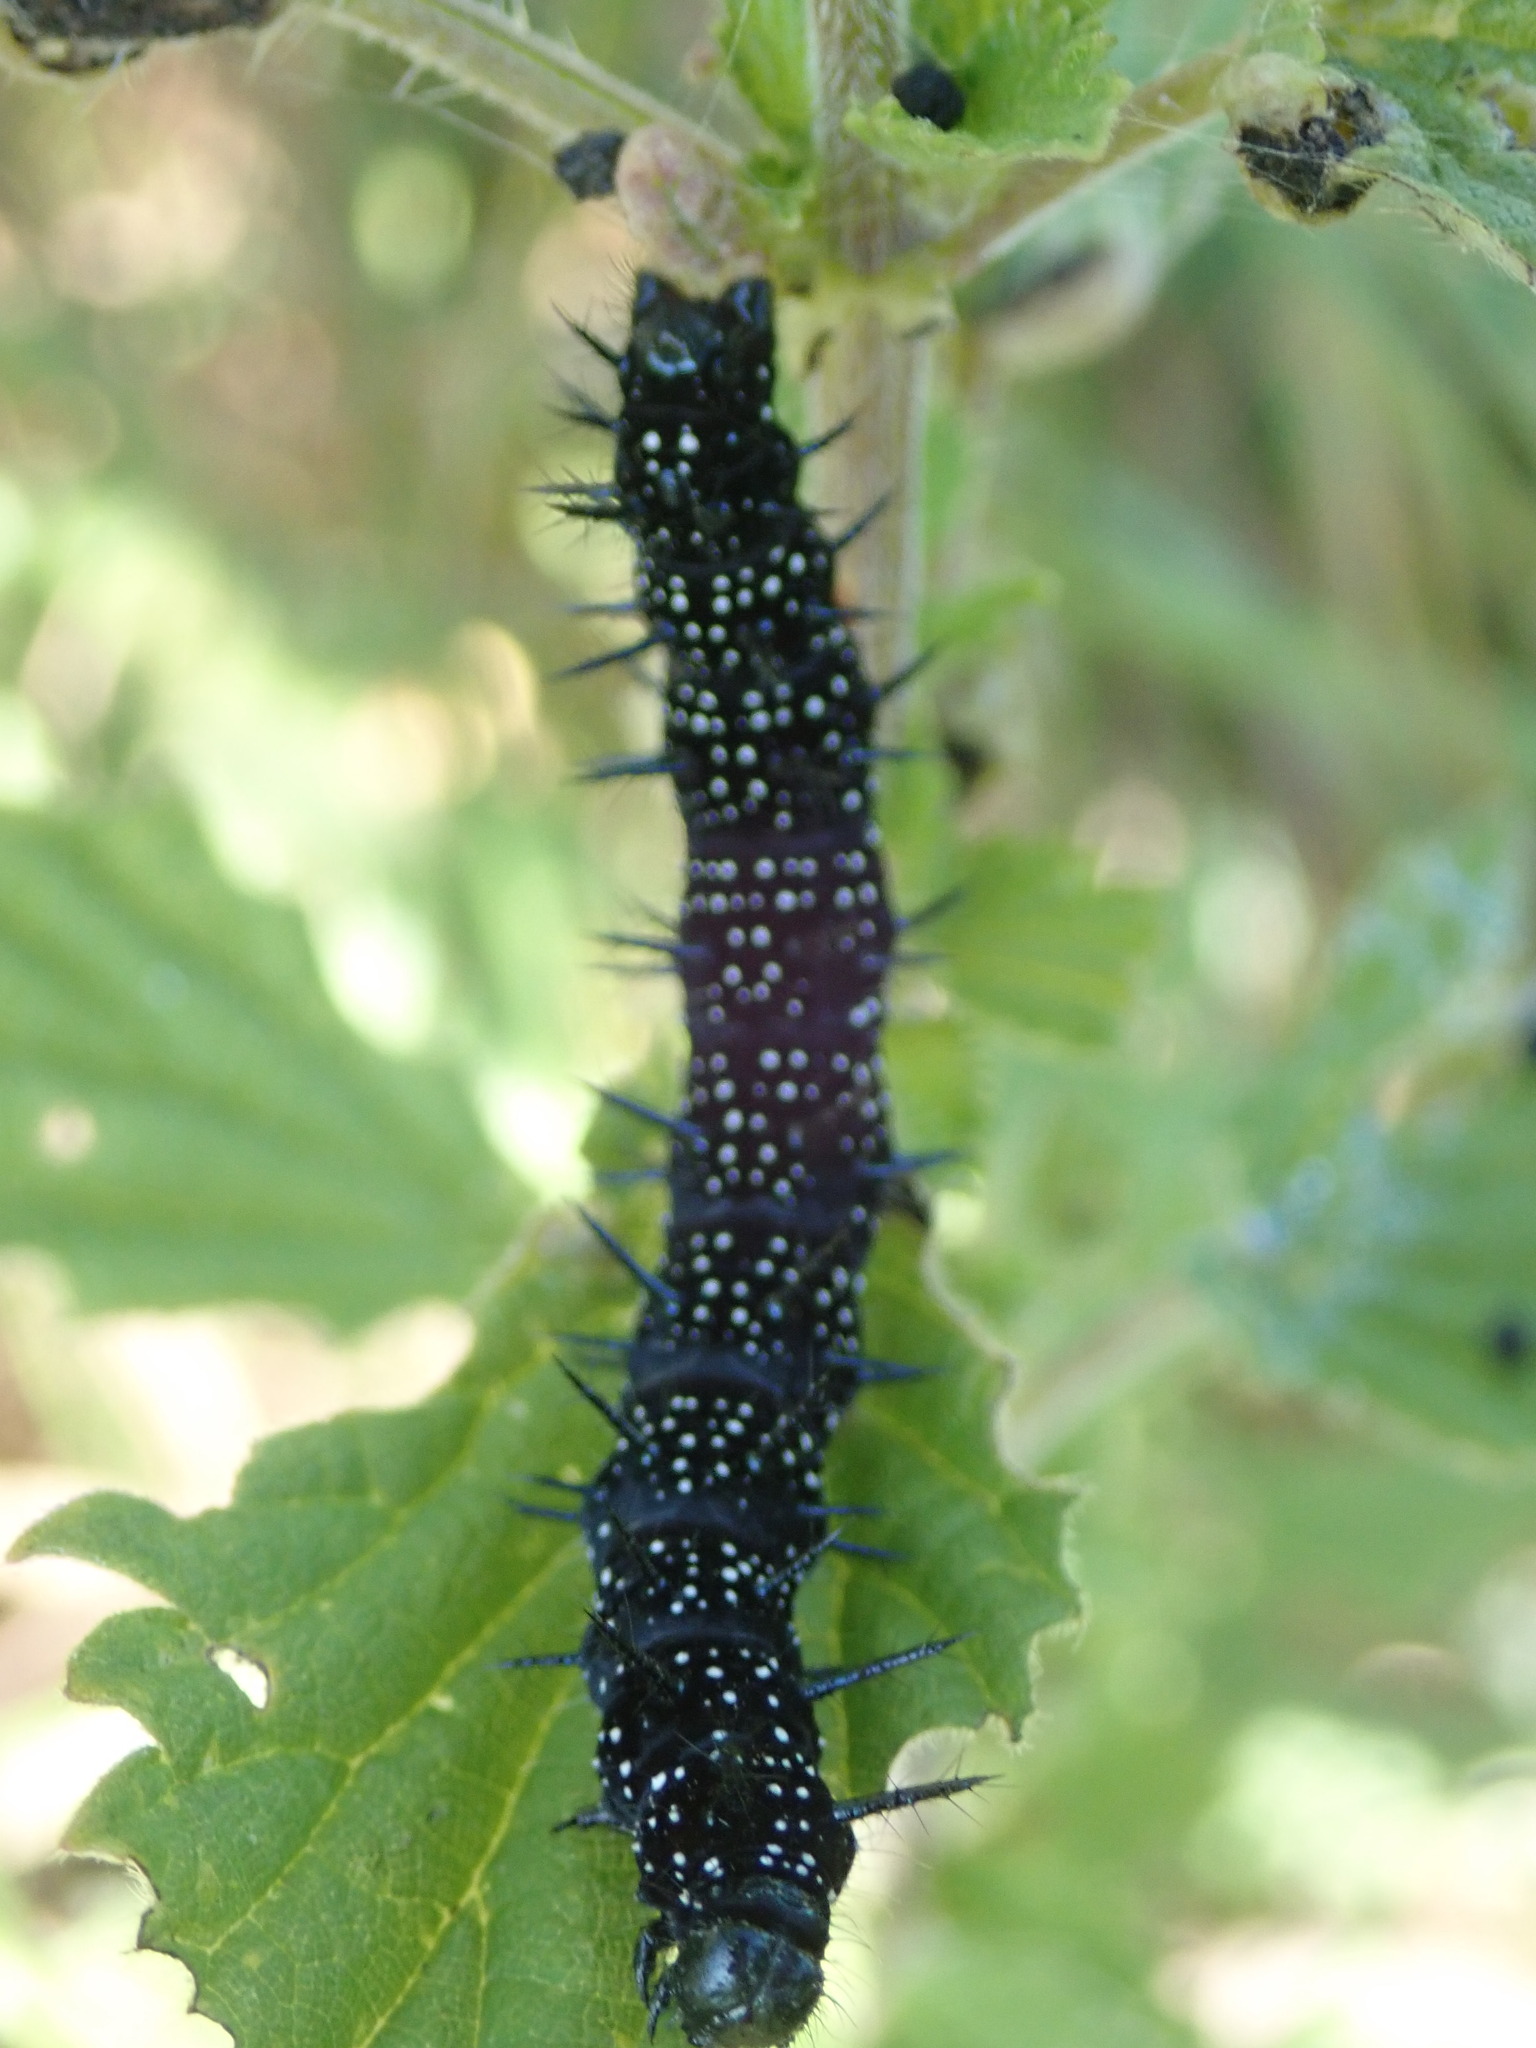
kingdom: Animalia
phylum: Arthropoda
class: Insecta
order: Lepidoptera
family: Nymphalidae
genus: Aglais
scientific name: Aglais io
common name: Peacock
